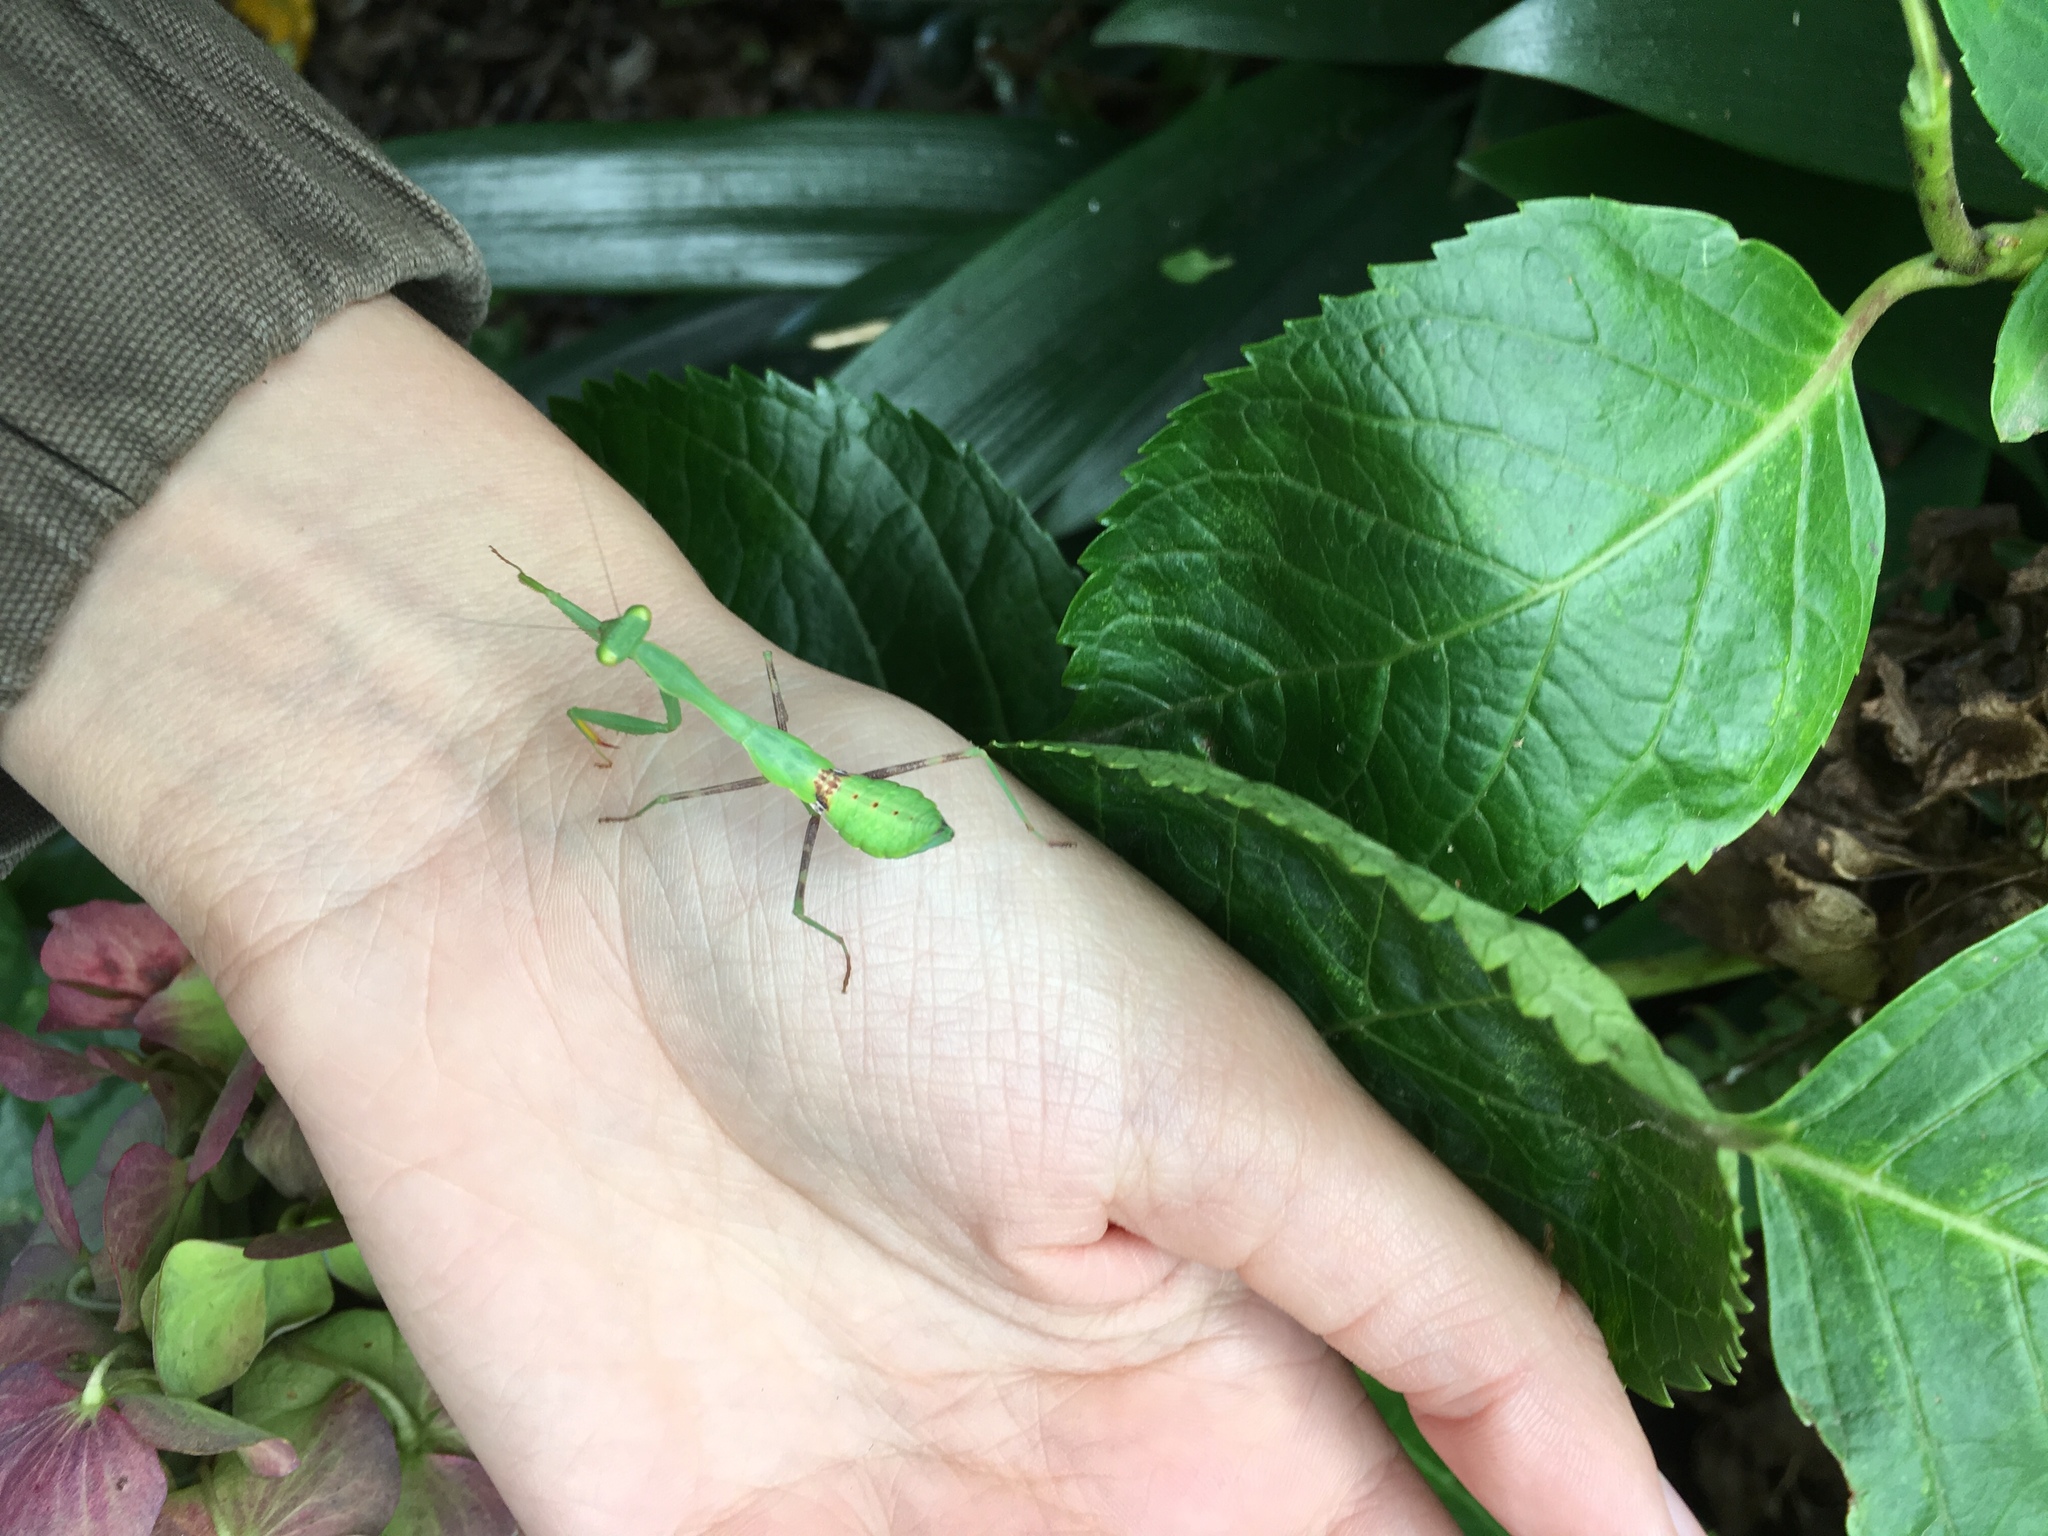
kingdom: Animalia
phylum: Arthropoda
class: Insecta
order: Mantodea
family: Miomantidae
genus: Miomantis
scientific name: Miomantis caffra
